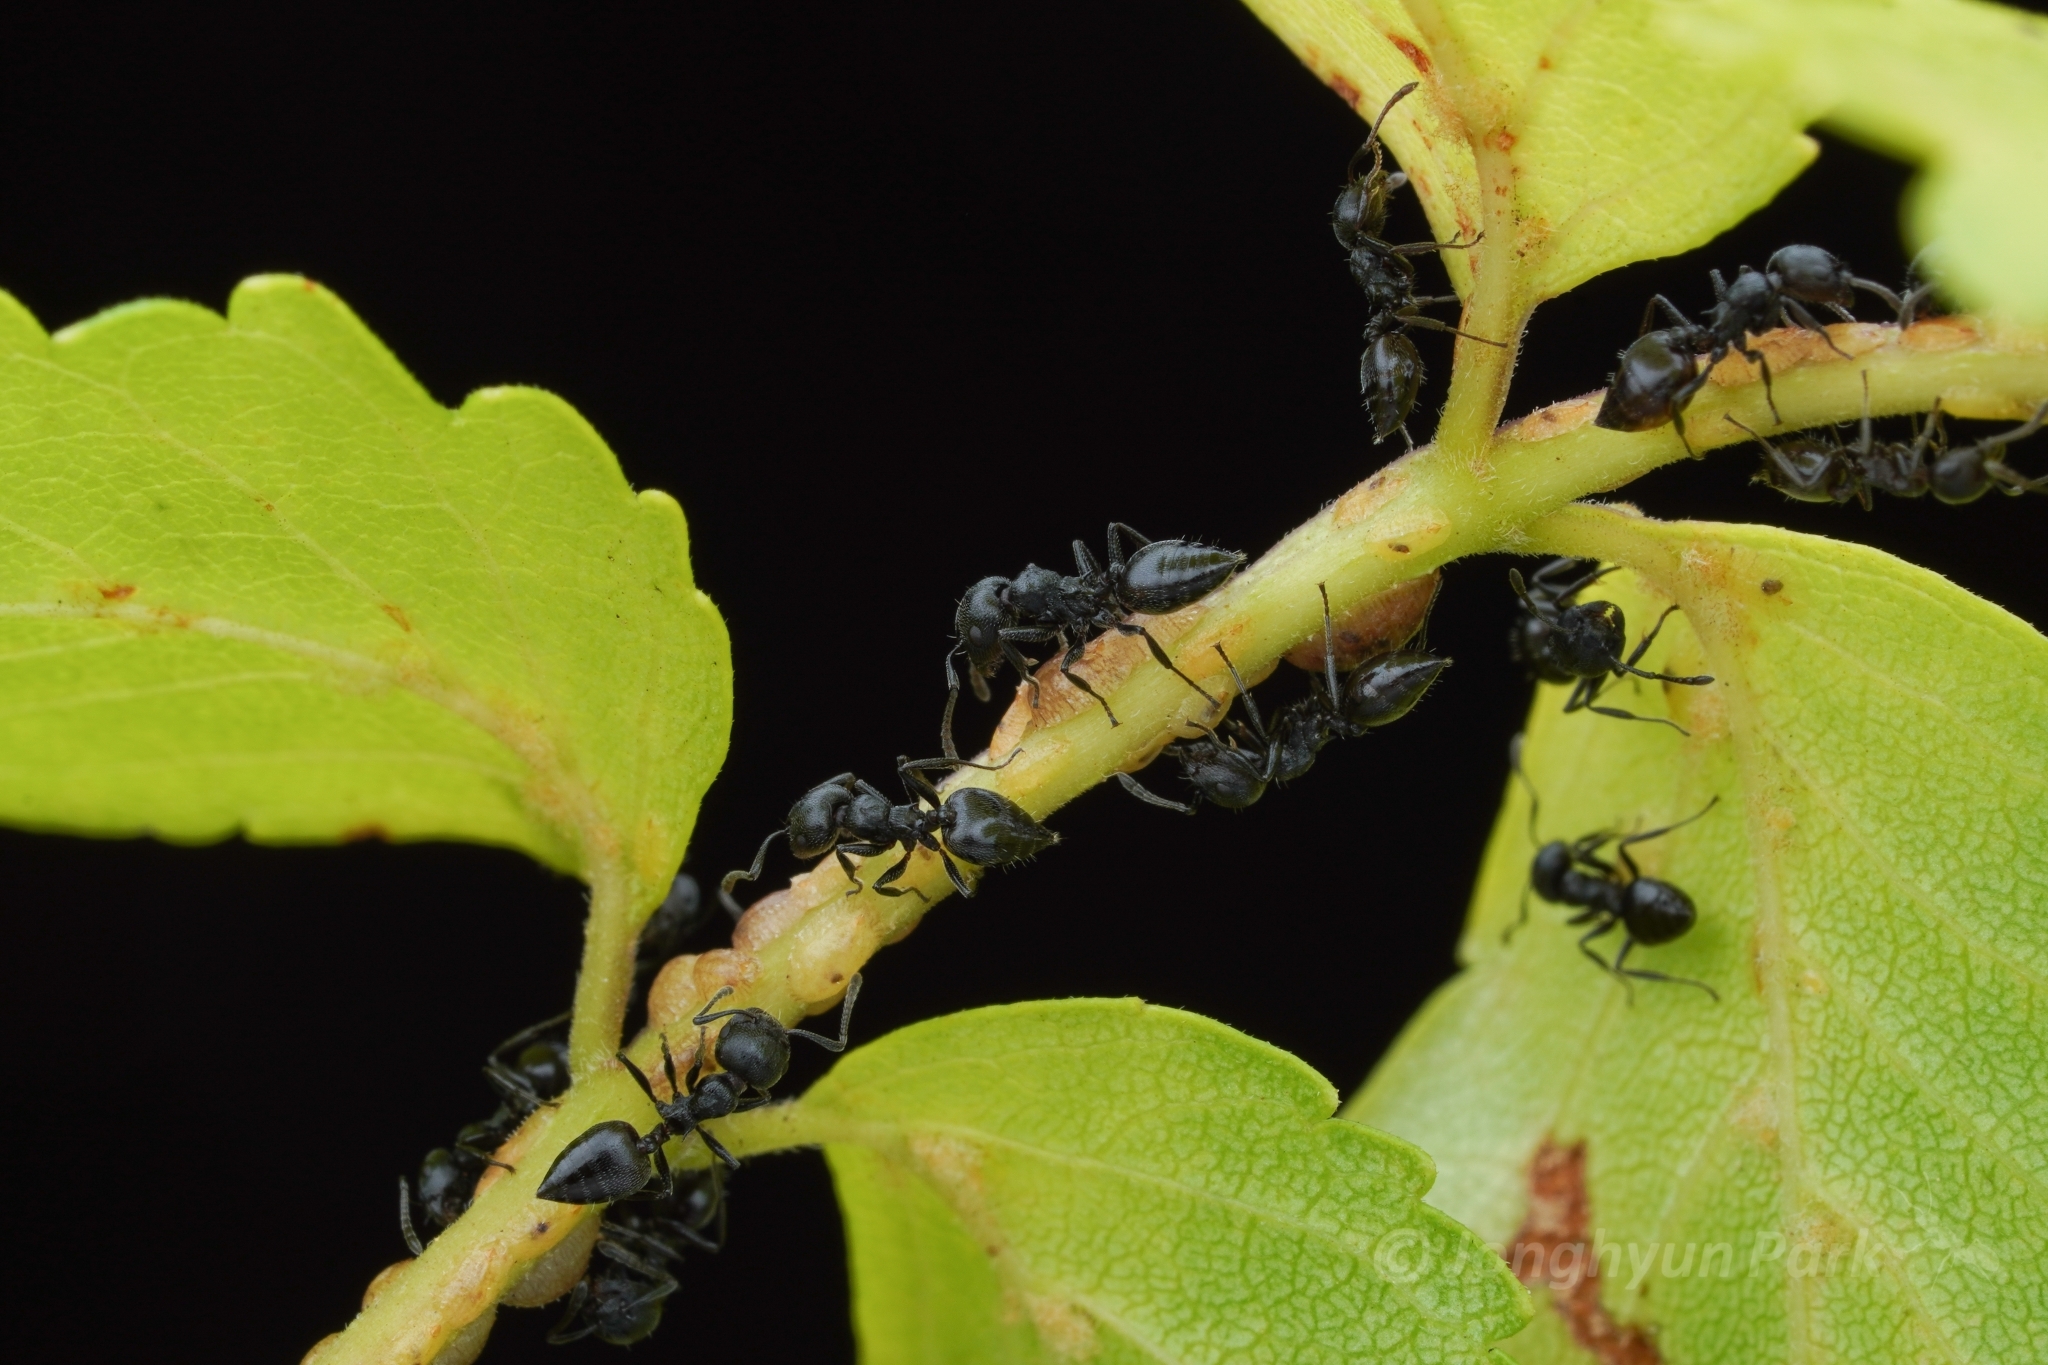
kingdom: Animalia
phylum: Arthropoda
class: Insecta
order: Hymenoptera
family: Formicidae
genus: Crematogaster
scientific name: Crematogaster peringueyi
